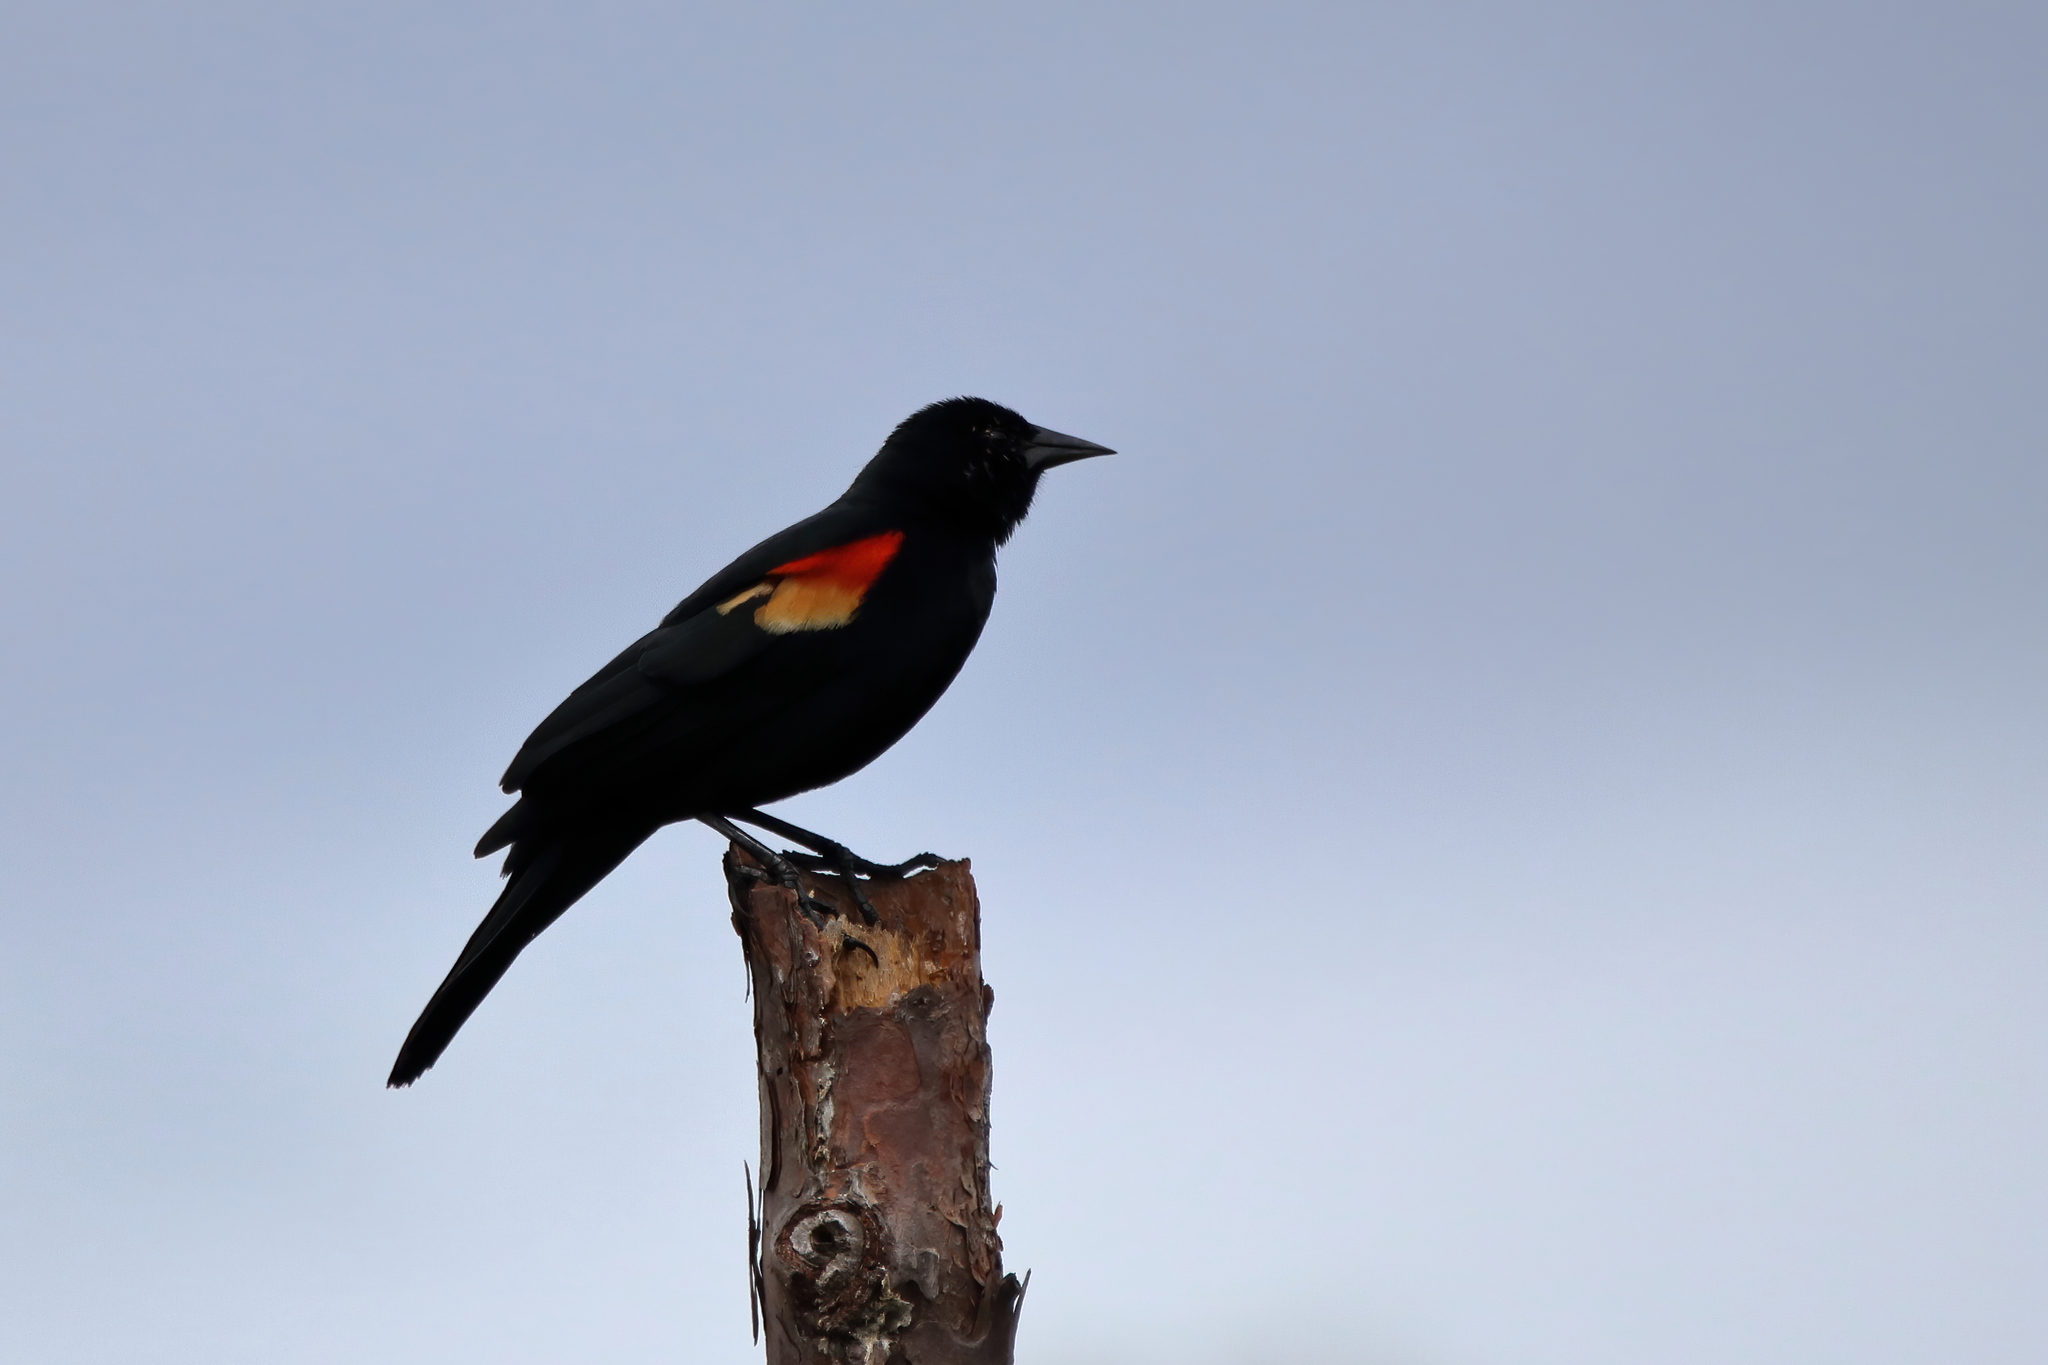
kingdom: Animalia
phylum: Chordata
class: Aves
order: Passeriformes
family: Icteridae
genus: Agelaius
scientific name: Agelaius phoeniceus
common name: Red-winged blackbird
